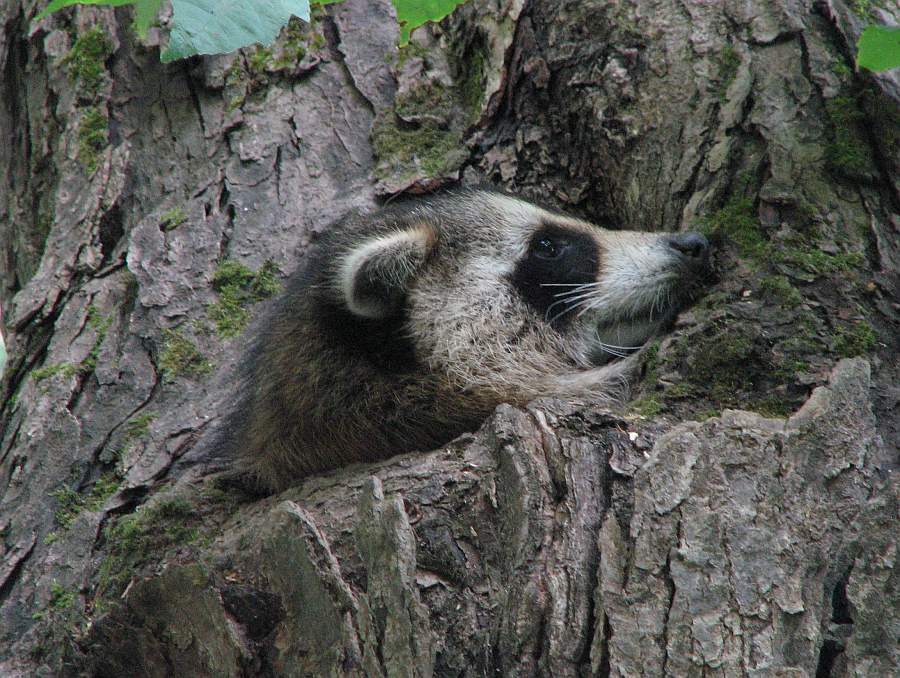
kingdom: Animalia
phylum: Chordata
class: Mammalia
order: Carnivora
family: Procyonidae
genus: Procyon
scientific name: Procyon lotor
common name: Raccoon
